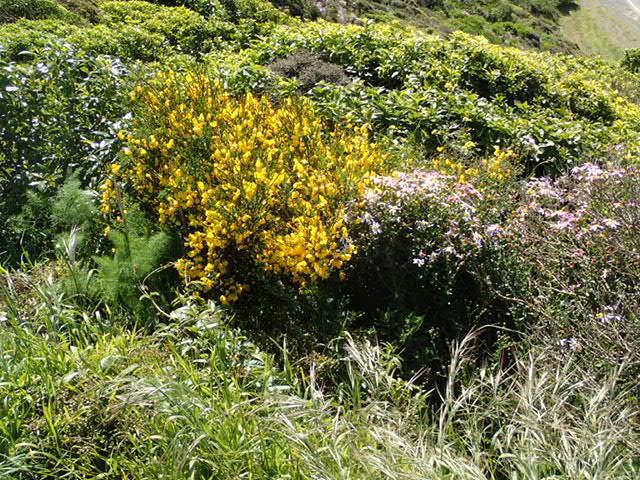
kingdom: Plantae
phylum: Tracheophyta
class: Magnoliopsida
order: Fabales
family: Fabaceae
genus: Cytisus
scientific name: Cytisus scoparius
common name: Scotch broom
